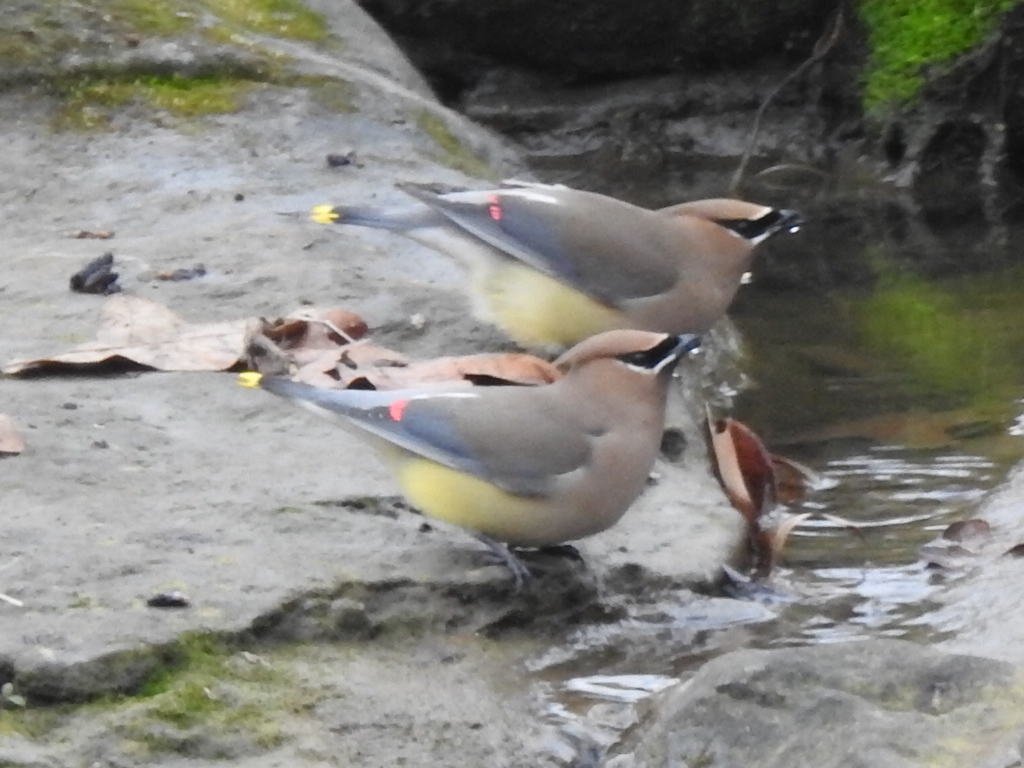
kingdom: Animalia
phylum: Chordata
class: Aves
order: Passeriformes
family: Bombycillidae
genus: Bombycilla
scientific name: Bombycilla cedrorum
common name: Cedar waxwing
